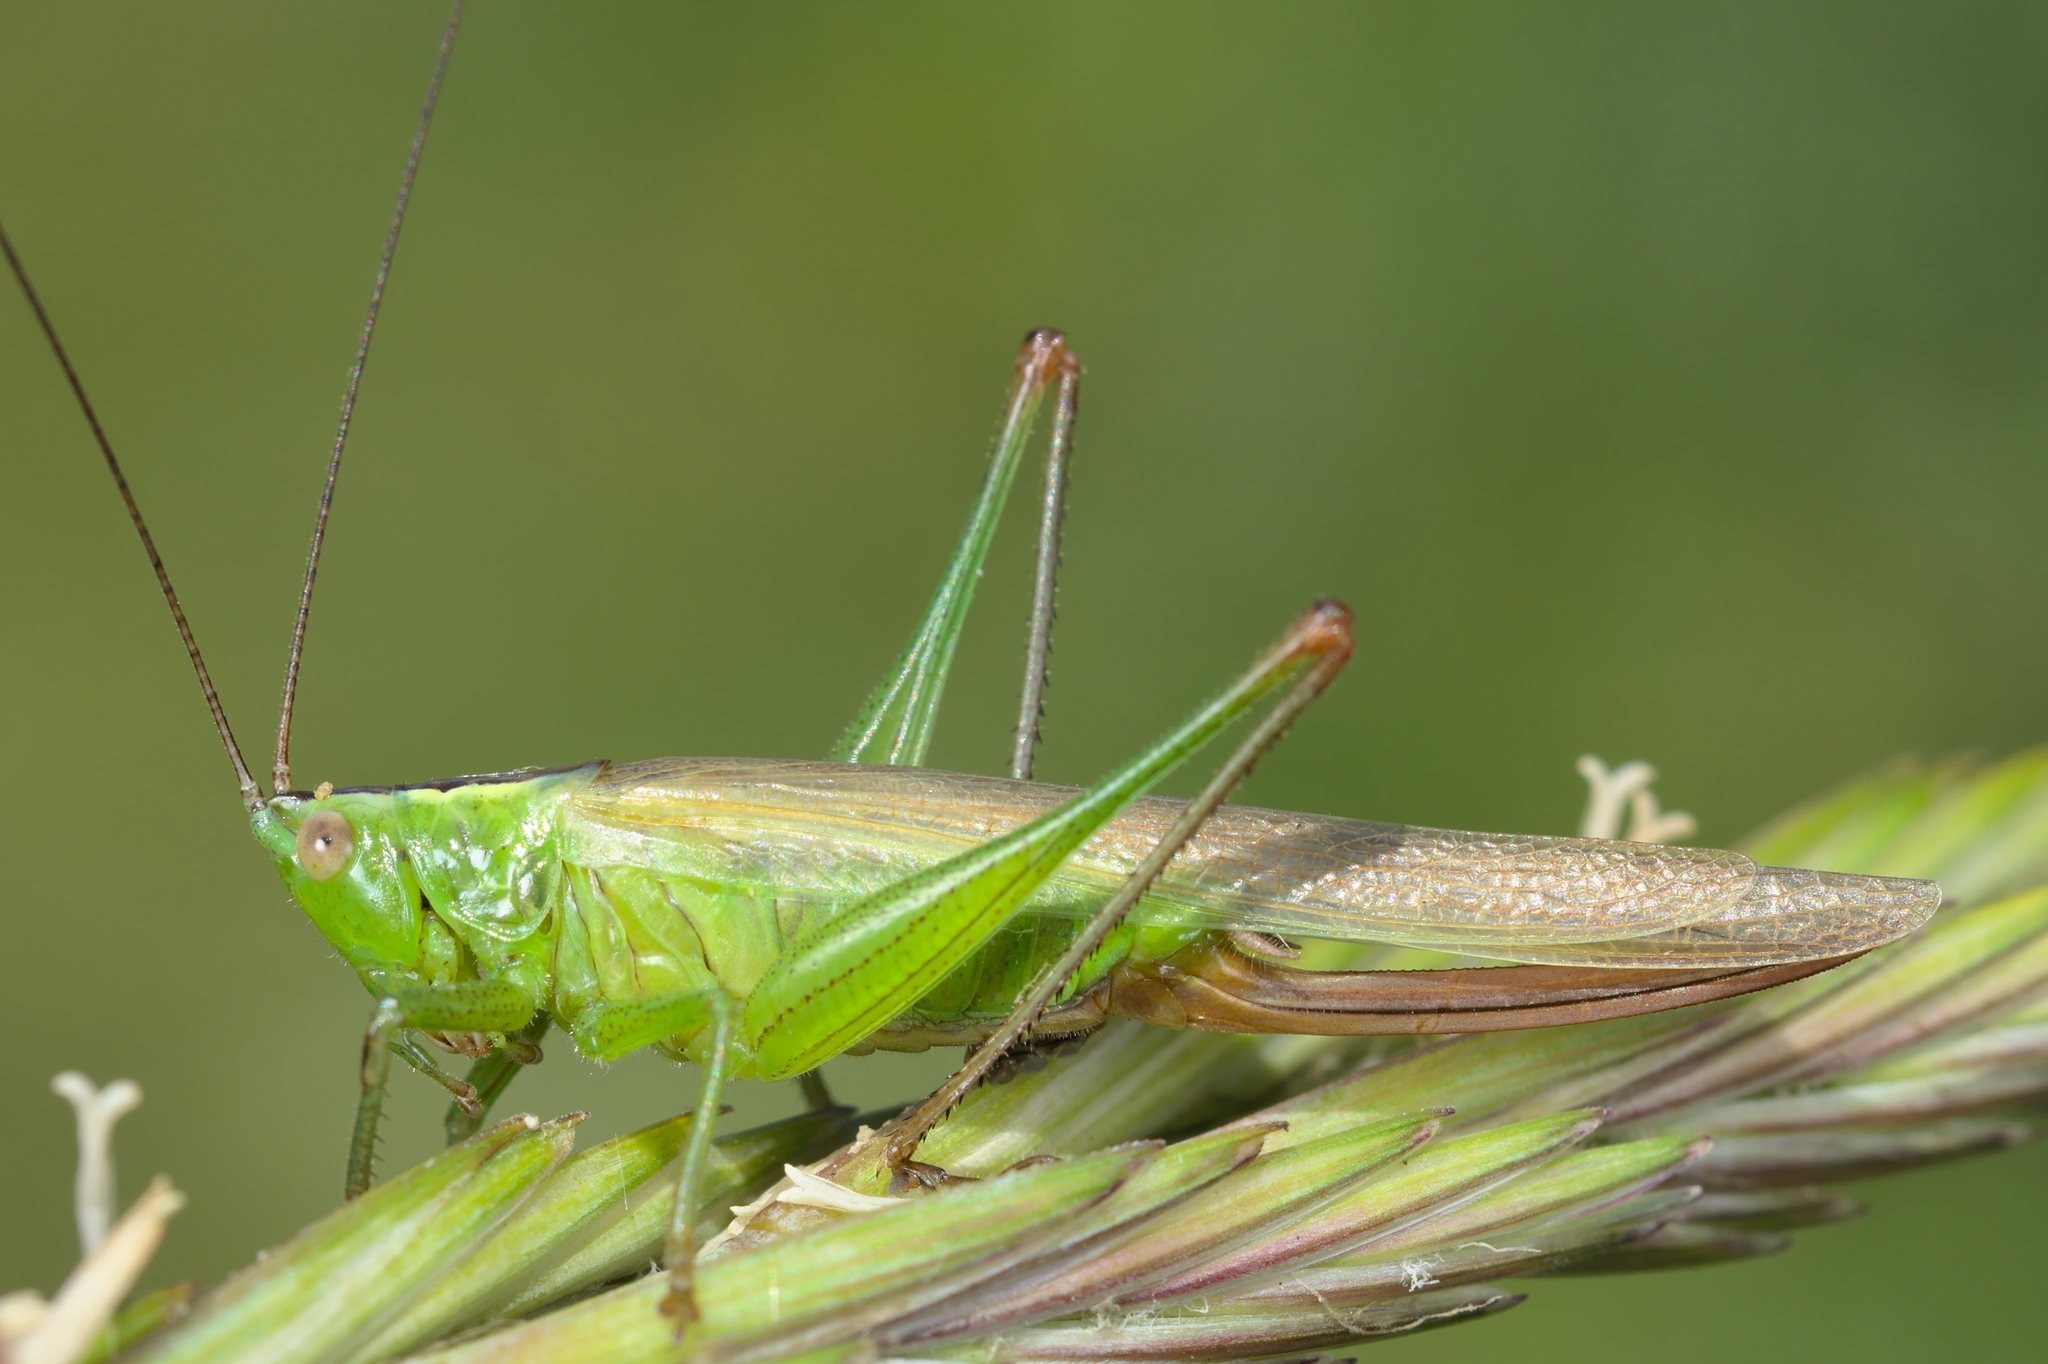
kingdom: Animalia
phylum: Arthropoda
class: Insecta
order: Orthoptera
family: Tettigoniidae
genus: Conocephalus
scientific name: Conocephalus fuscus
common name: Long-winged conehead
